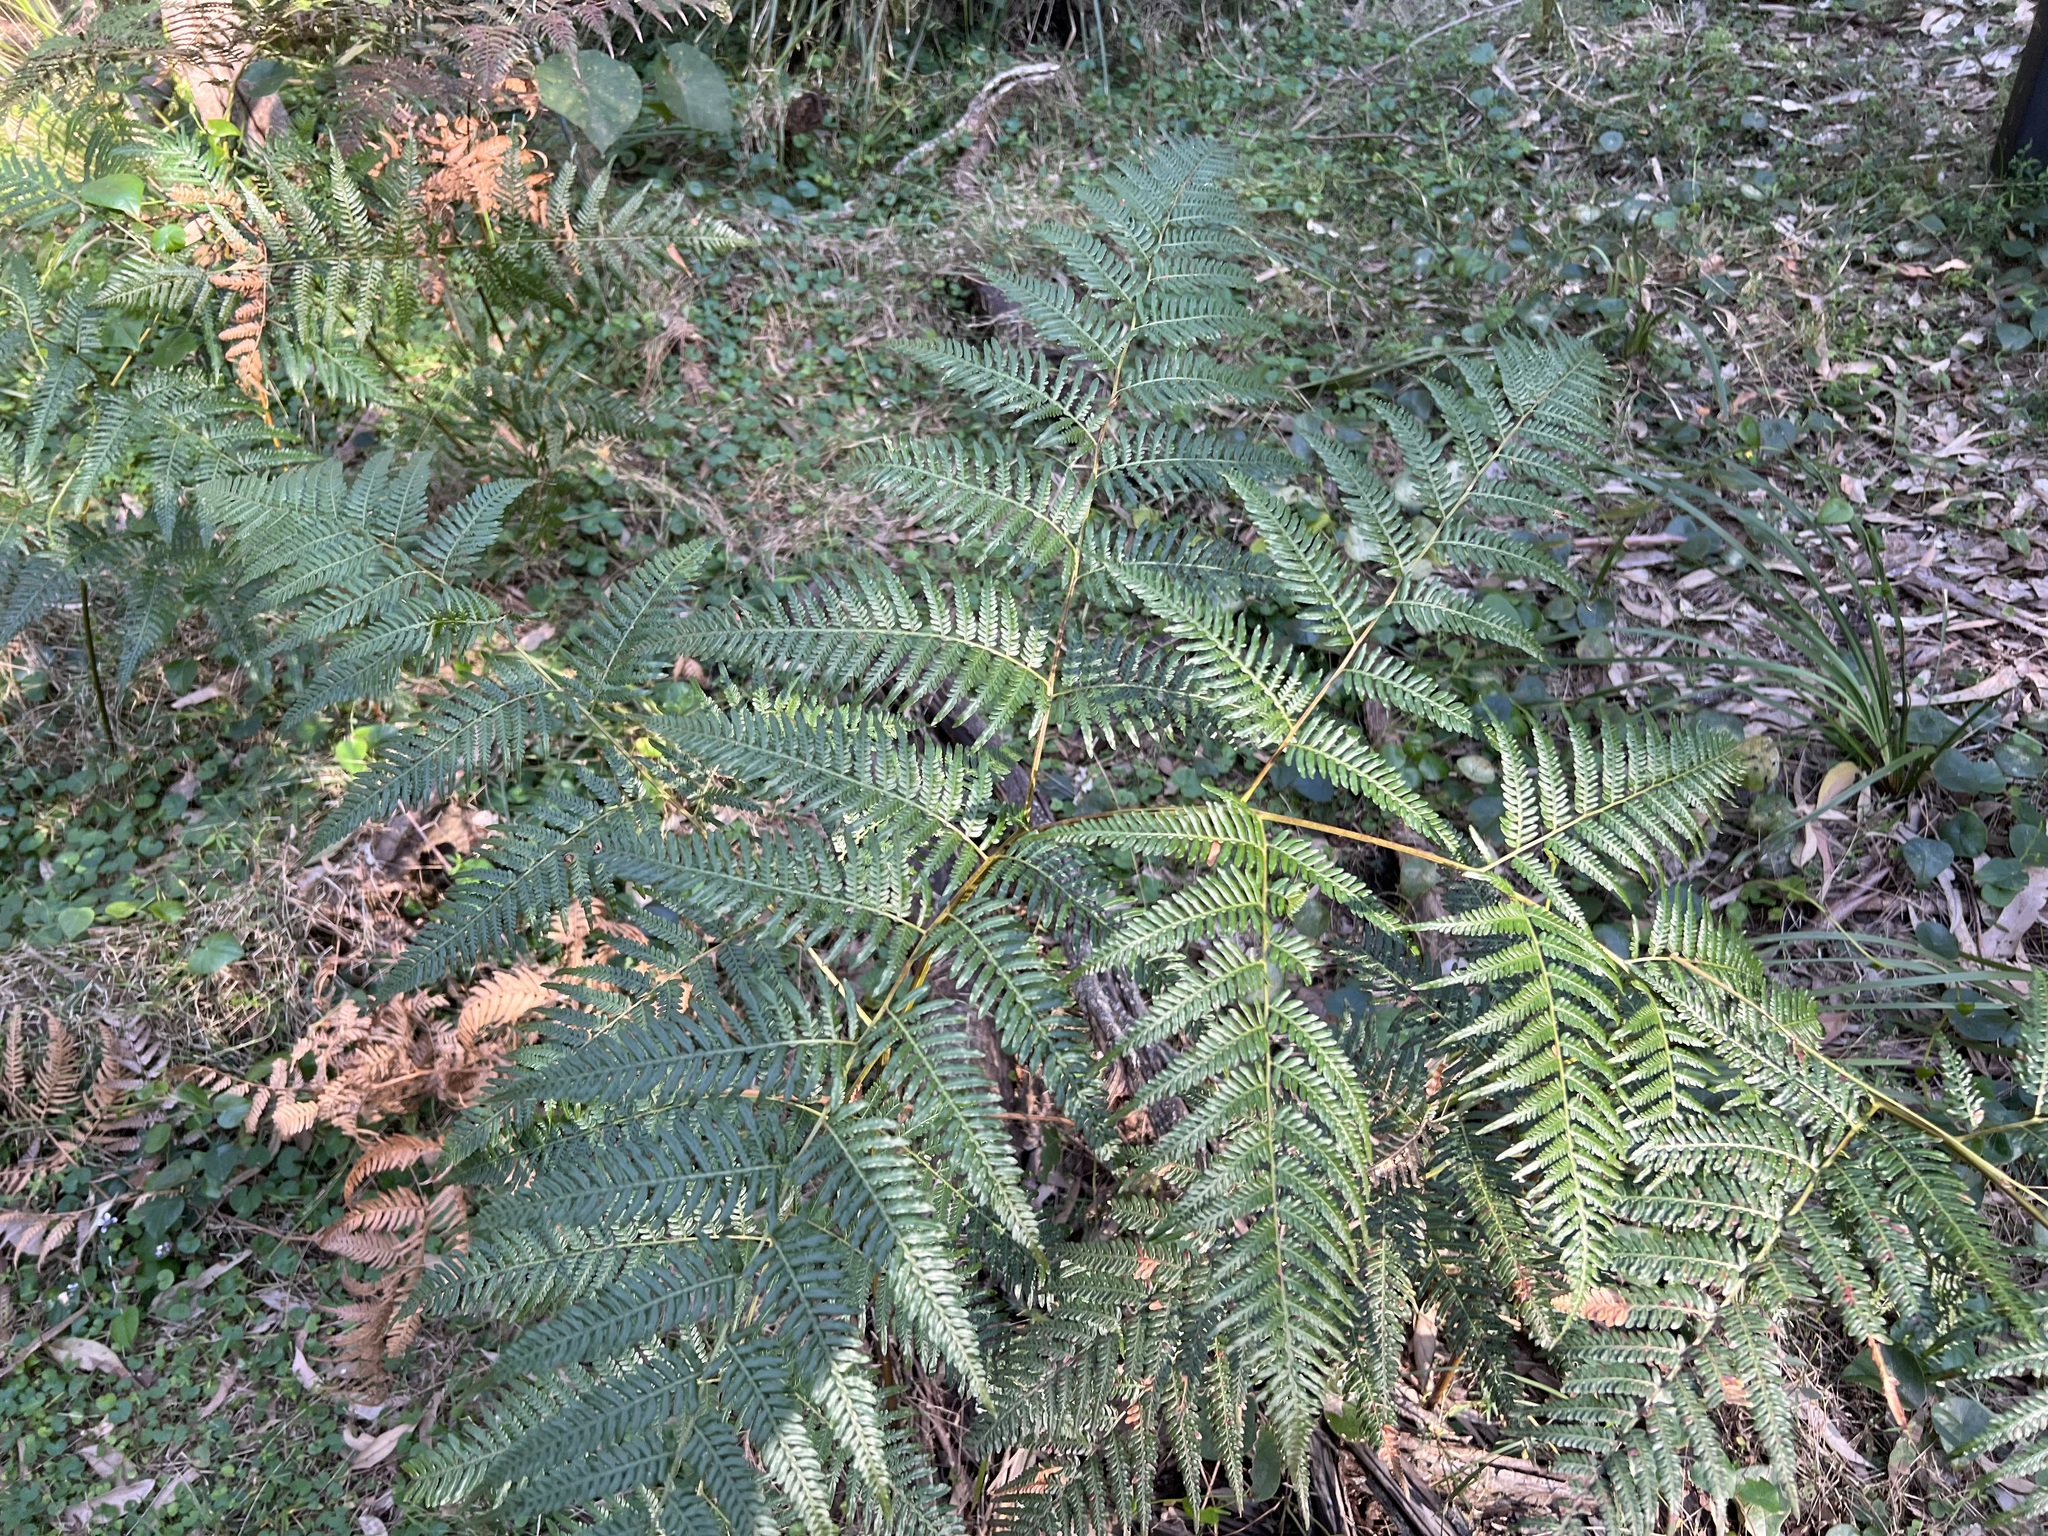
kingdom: Plantae
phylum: Tracheophyta
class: Polypodiopsida
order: Polypodiales
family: Dennstaedtiaceae
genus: Pteridium
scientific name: Pteridium esculentum
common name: Bracken fern
